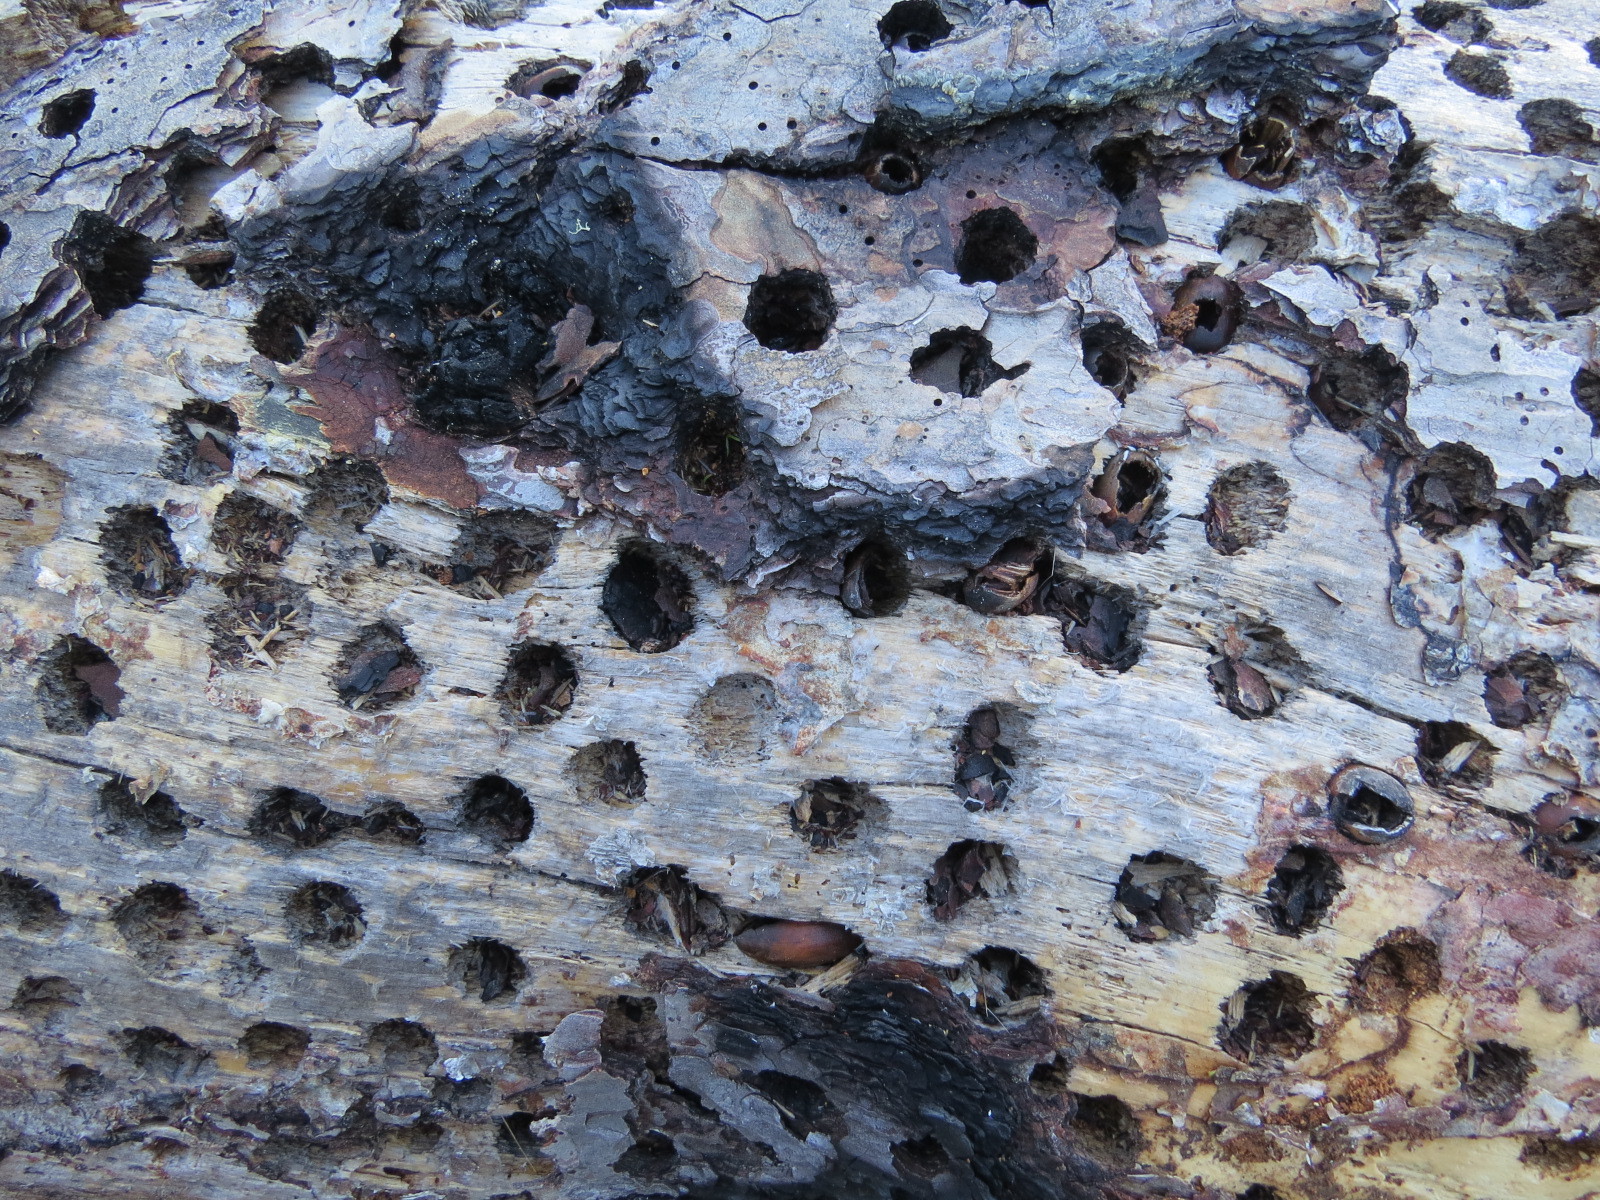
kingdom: Animalia
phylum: Chordata
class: Aves
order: Piciformes
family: Picidae
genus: Melanerpes
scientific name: Melanerpes formicivorus
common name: Acorn woodpecker
